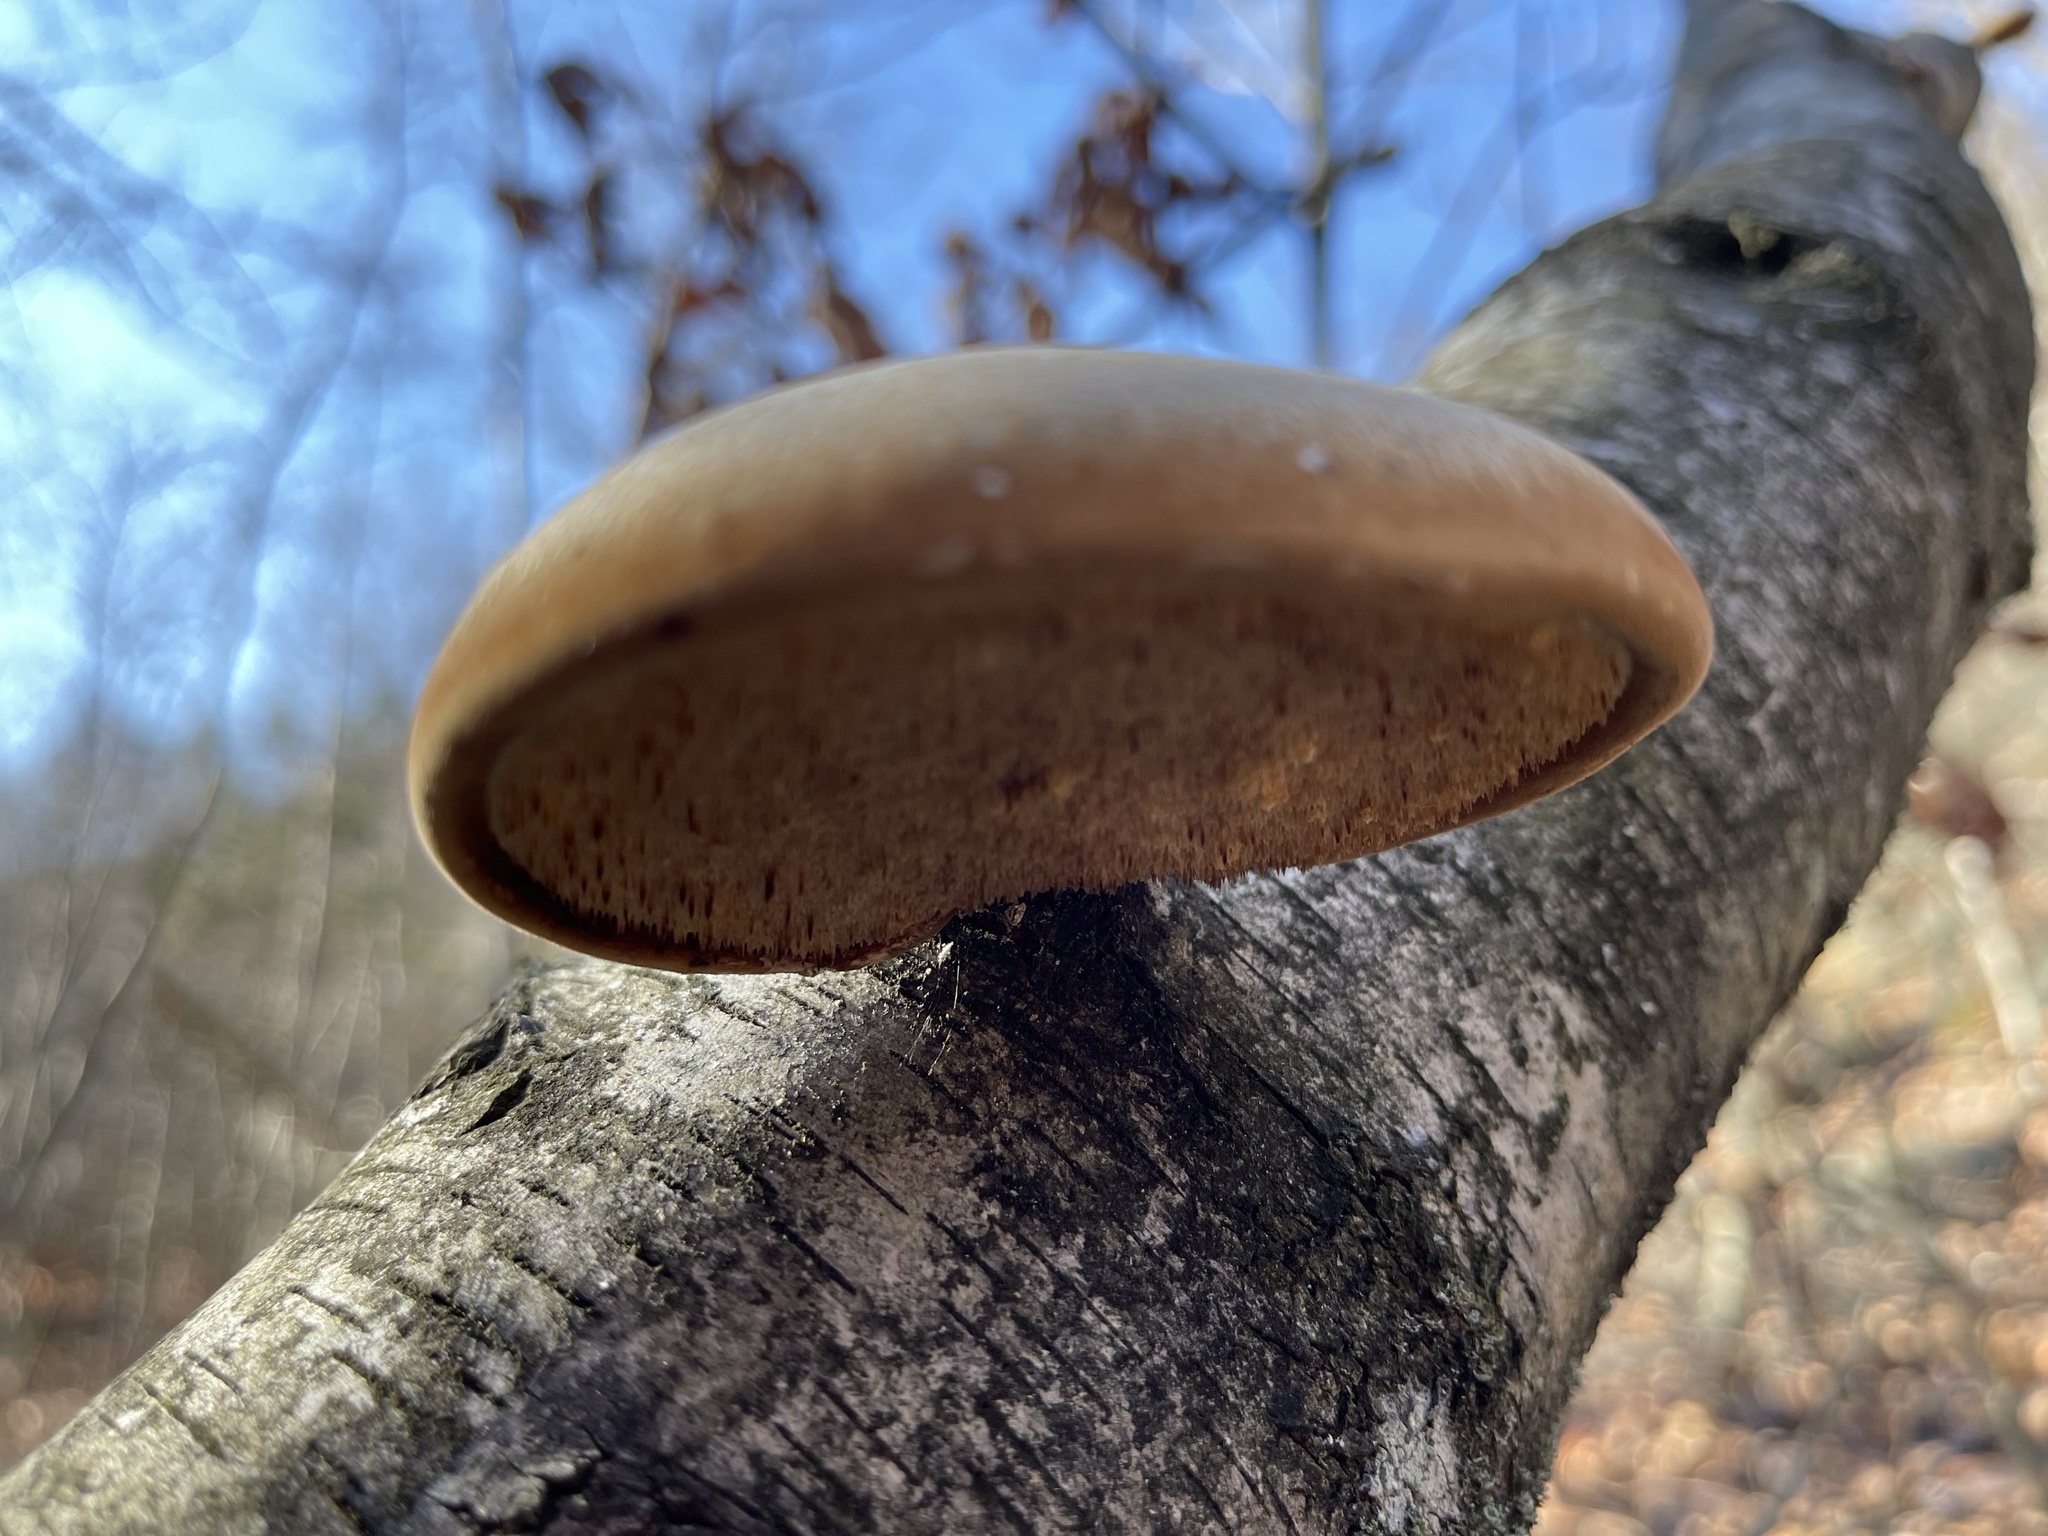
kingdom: Fungi
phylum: Basidiomycota
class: Agaricomycetes
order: Polyporales
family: Fomitopsidaceae
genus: Fomitopsis
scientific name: Fomitopsis betulina
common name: Birch polypore
